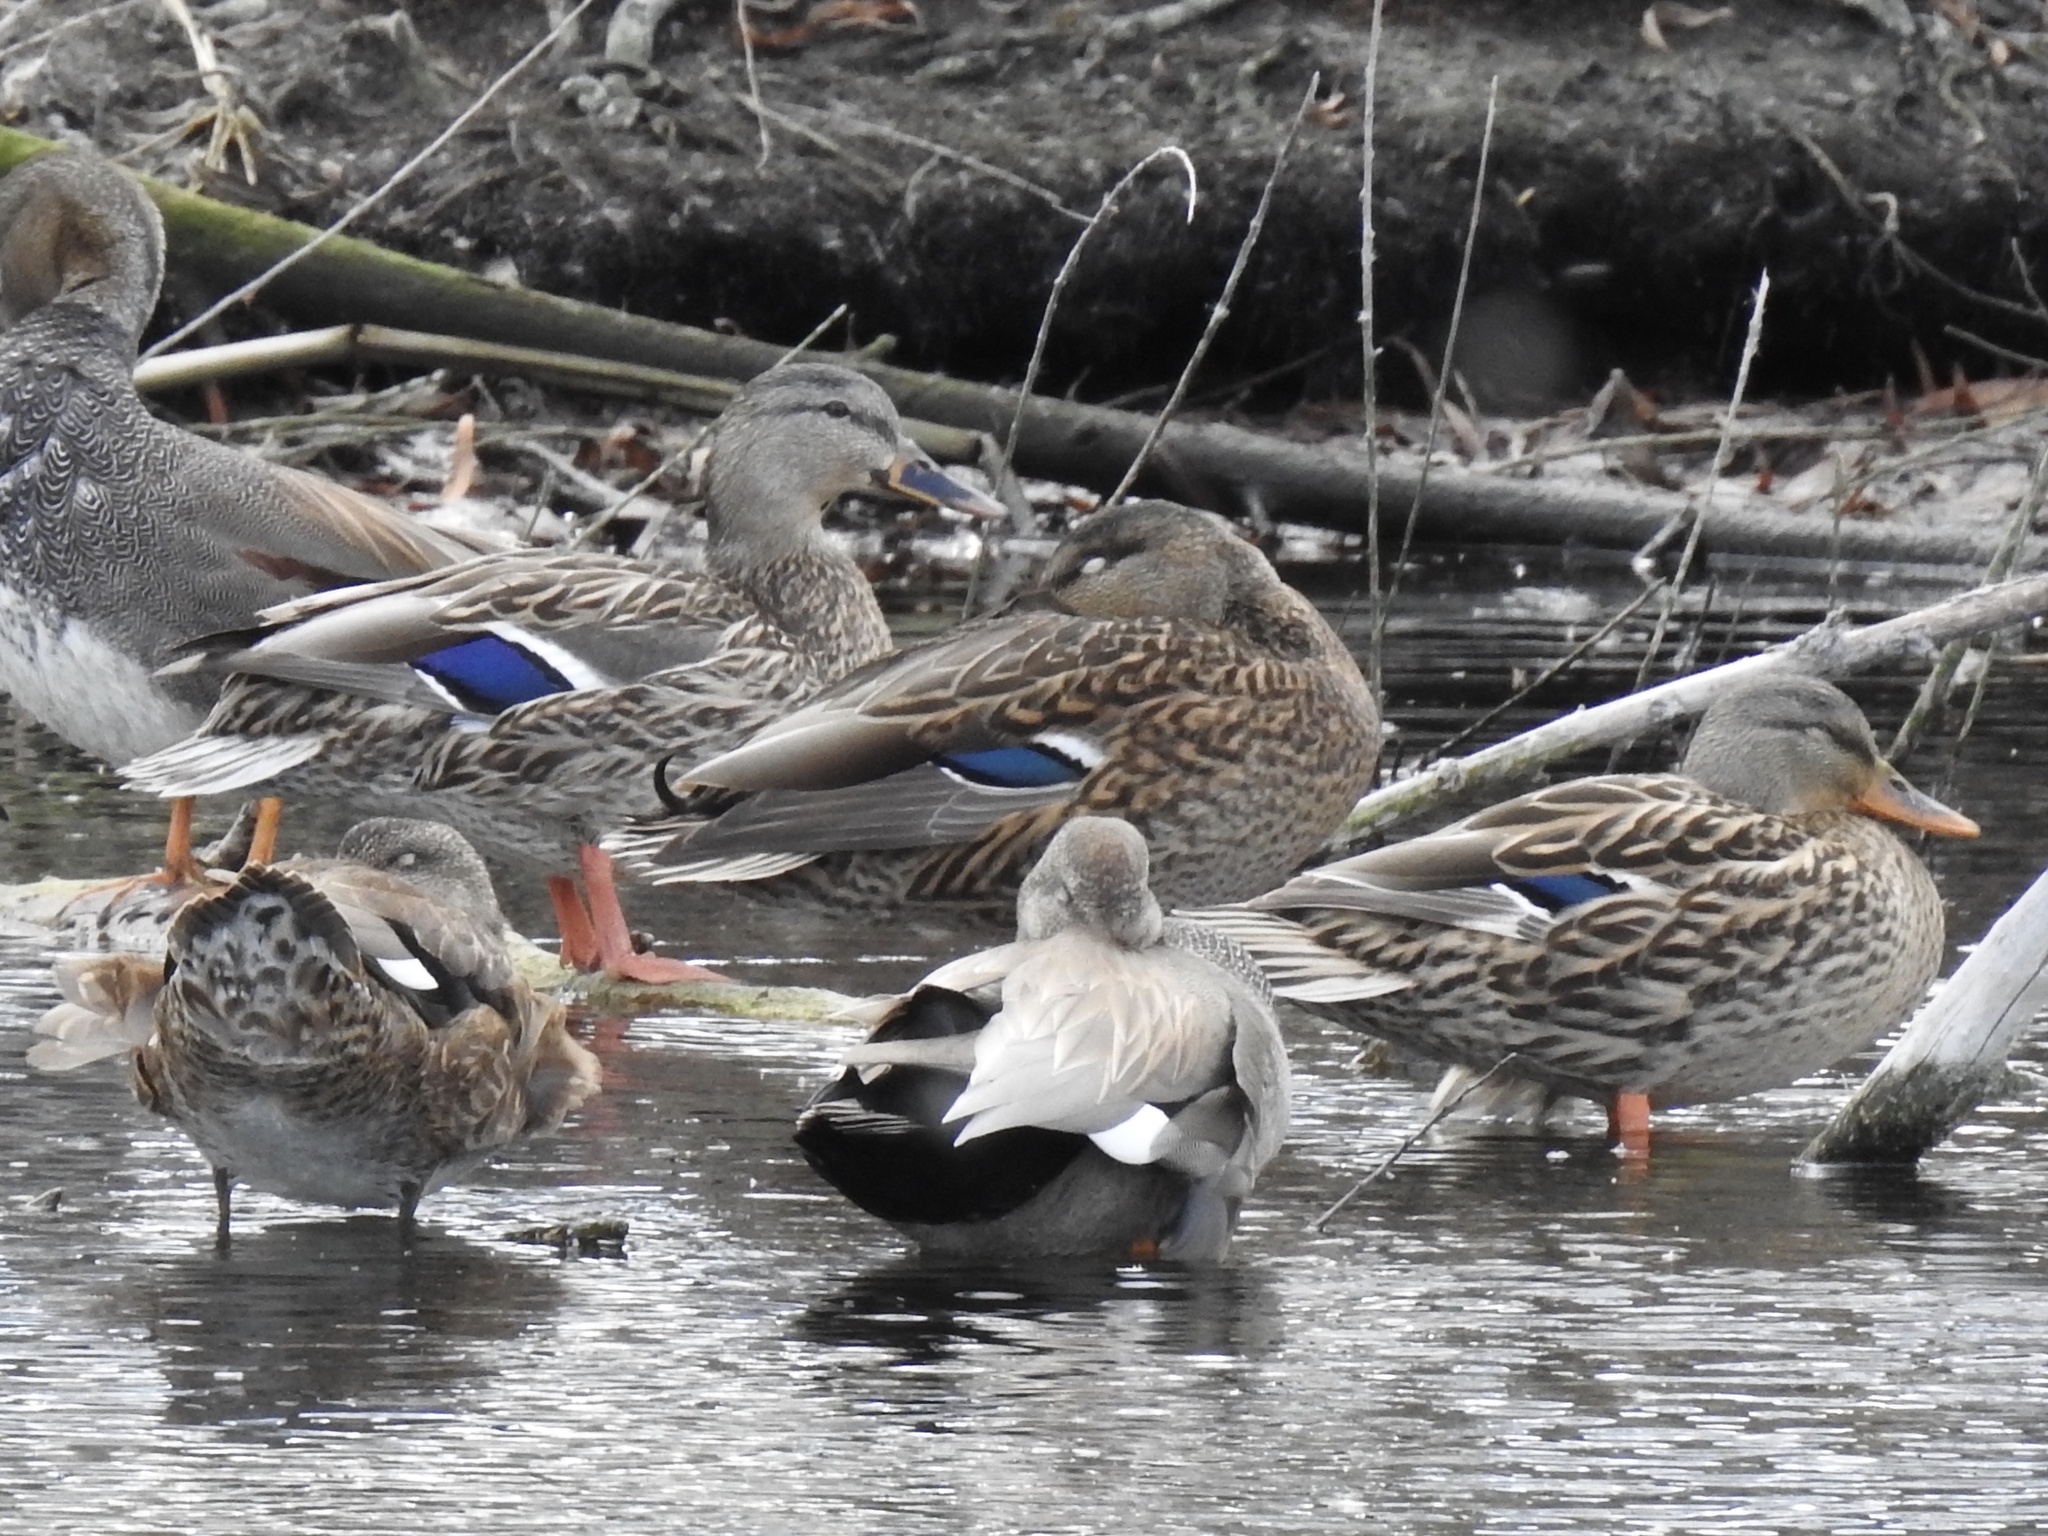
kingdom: Animalia
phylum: Chordata
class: Aves
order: Anseriformes
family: Anatidae
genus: Anas
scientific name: Anas platyrhynchos
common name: Mallard
